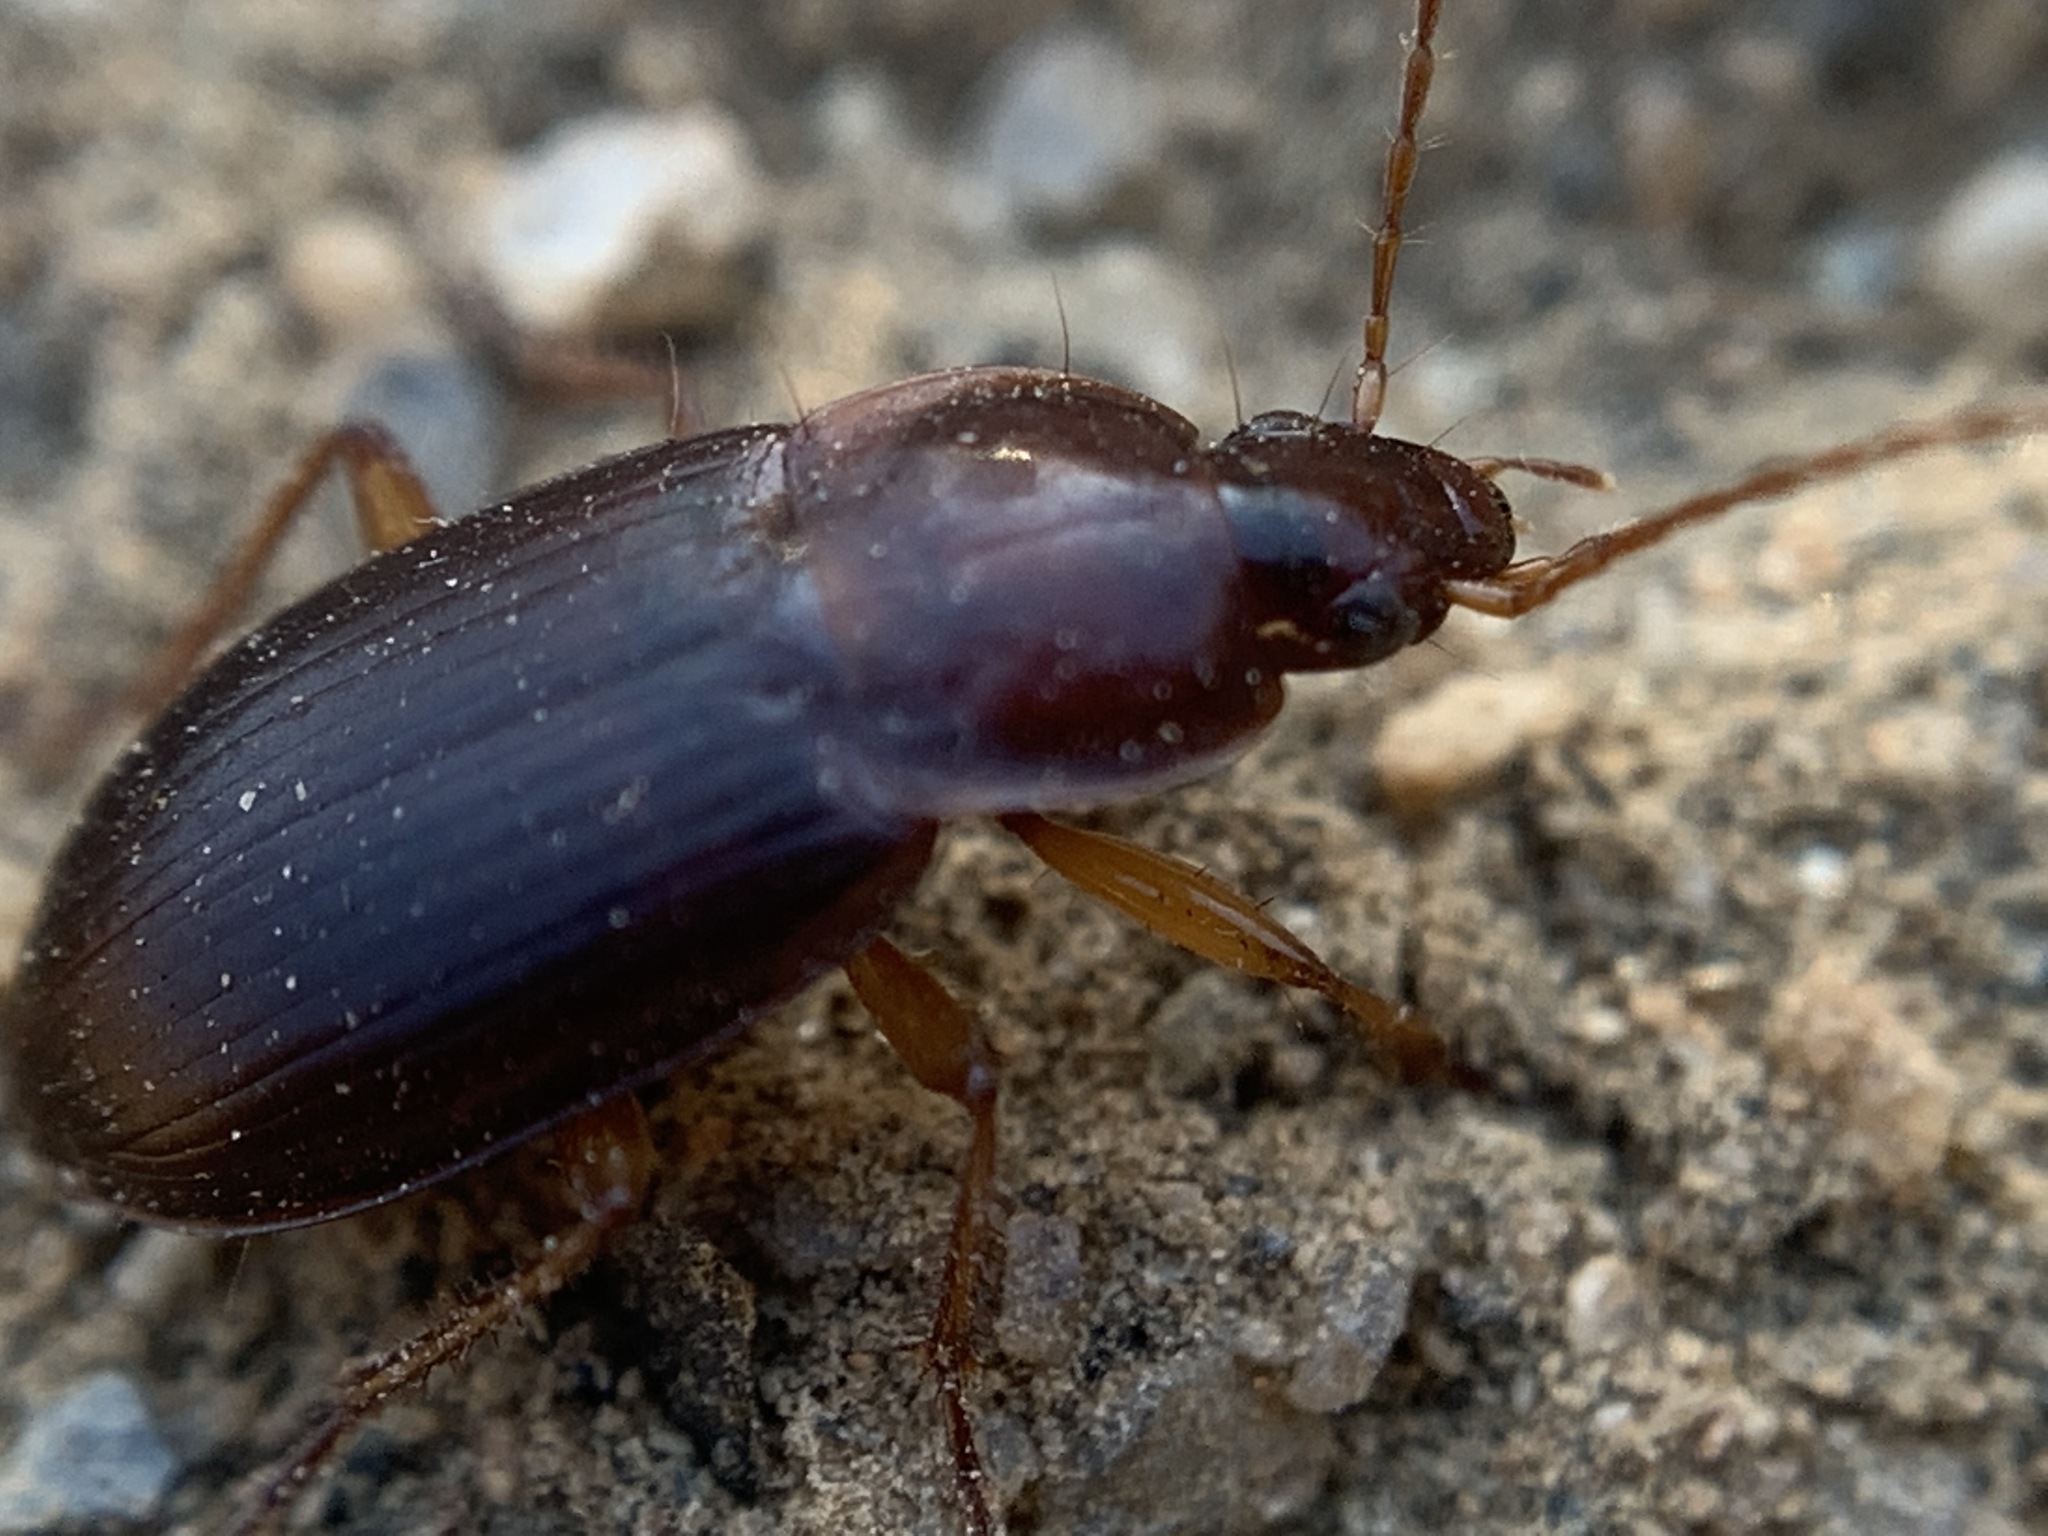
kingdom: Animalia
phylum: Arthropoda
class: Insecta
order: Coleoptera
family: Carabidae
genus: Calathus
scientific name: Calathus ruficollis
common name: Red-collared harp ground beetle
